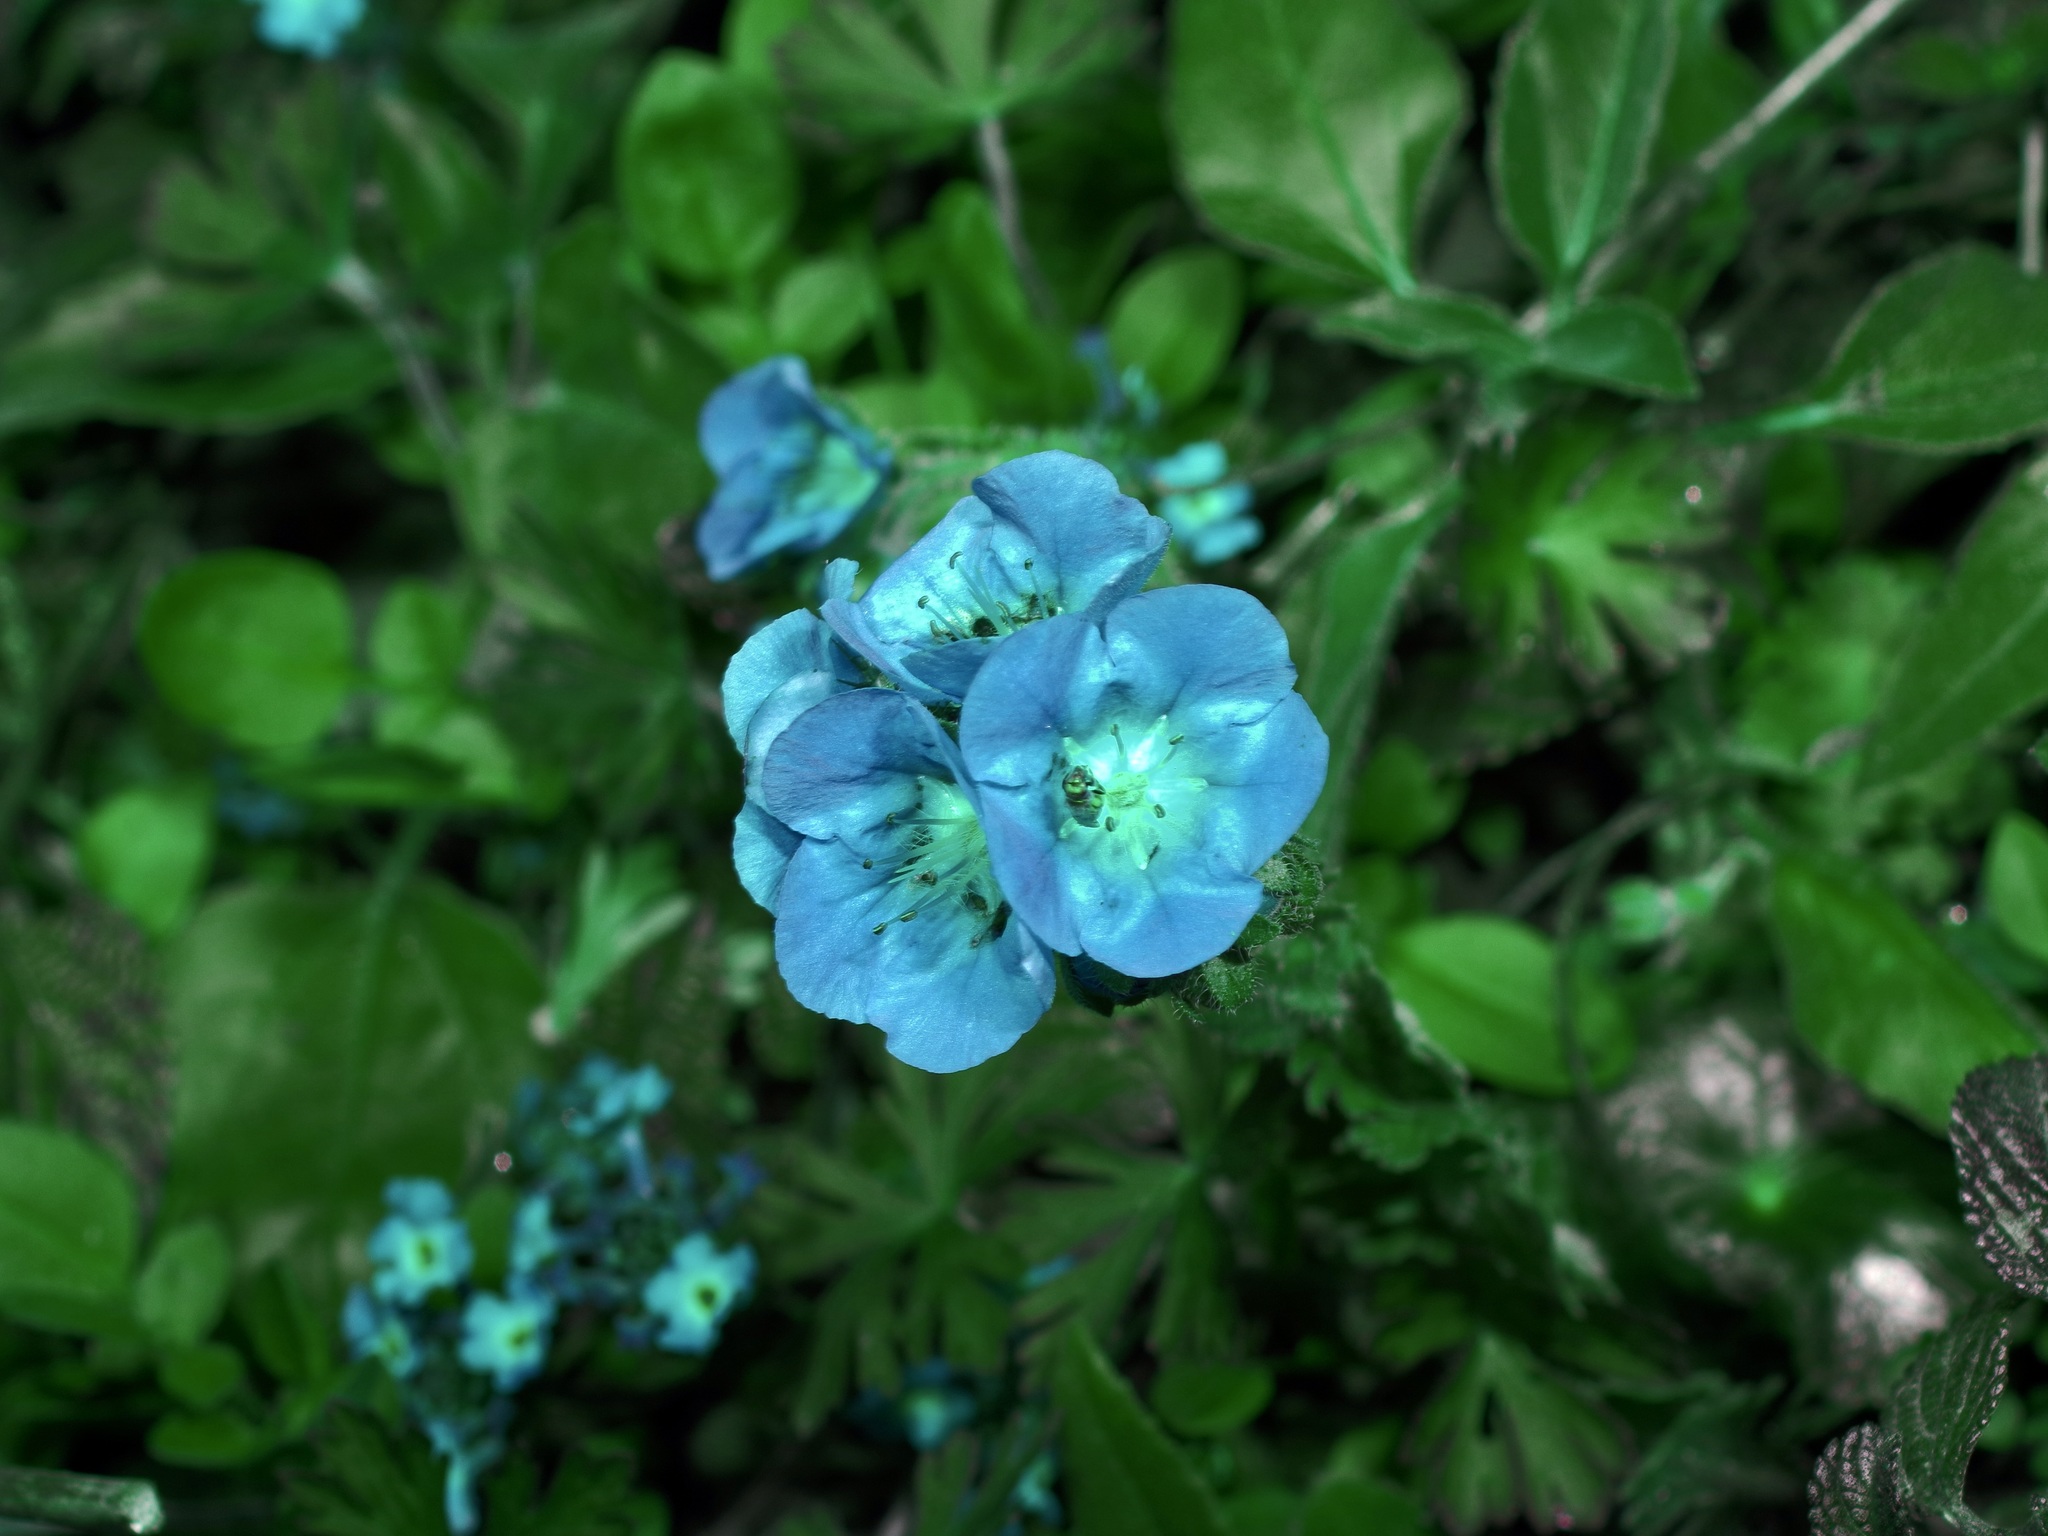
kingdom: Plantae
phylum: Tracheophyta
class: Magnoliopsida
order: Boraginales
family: Hydrophyllaceae
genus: Phacelia
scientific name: Phacelia patuliflora
